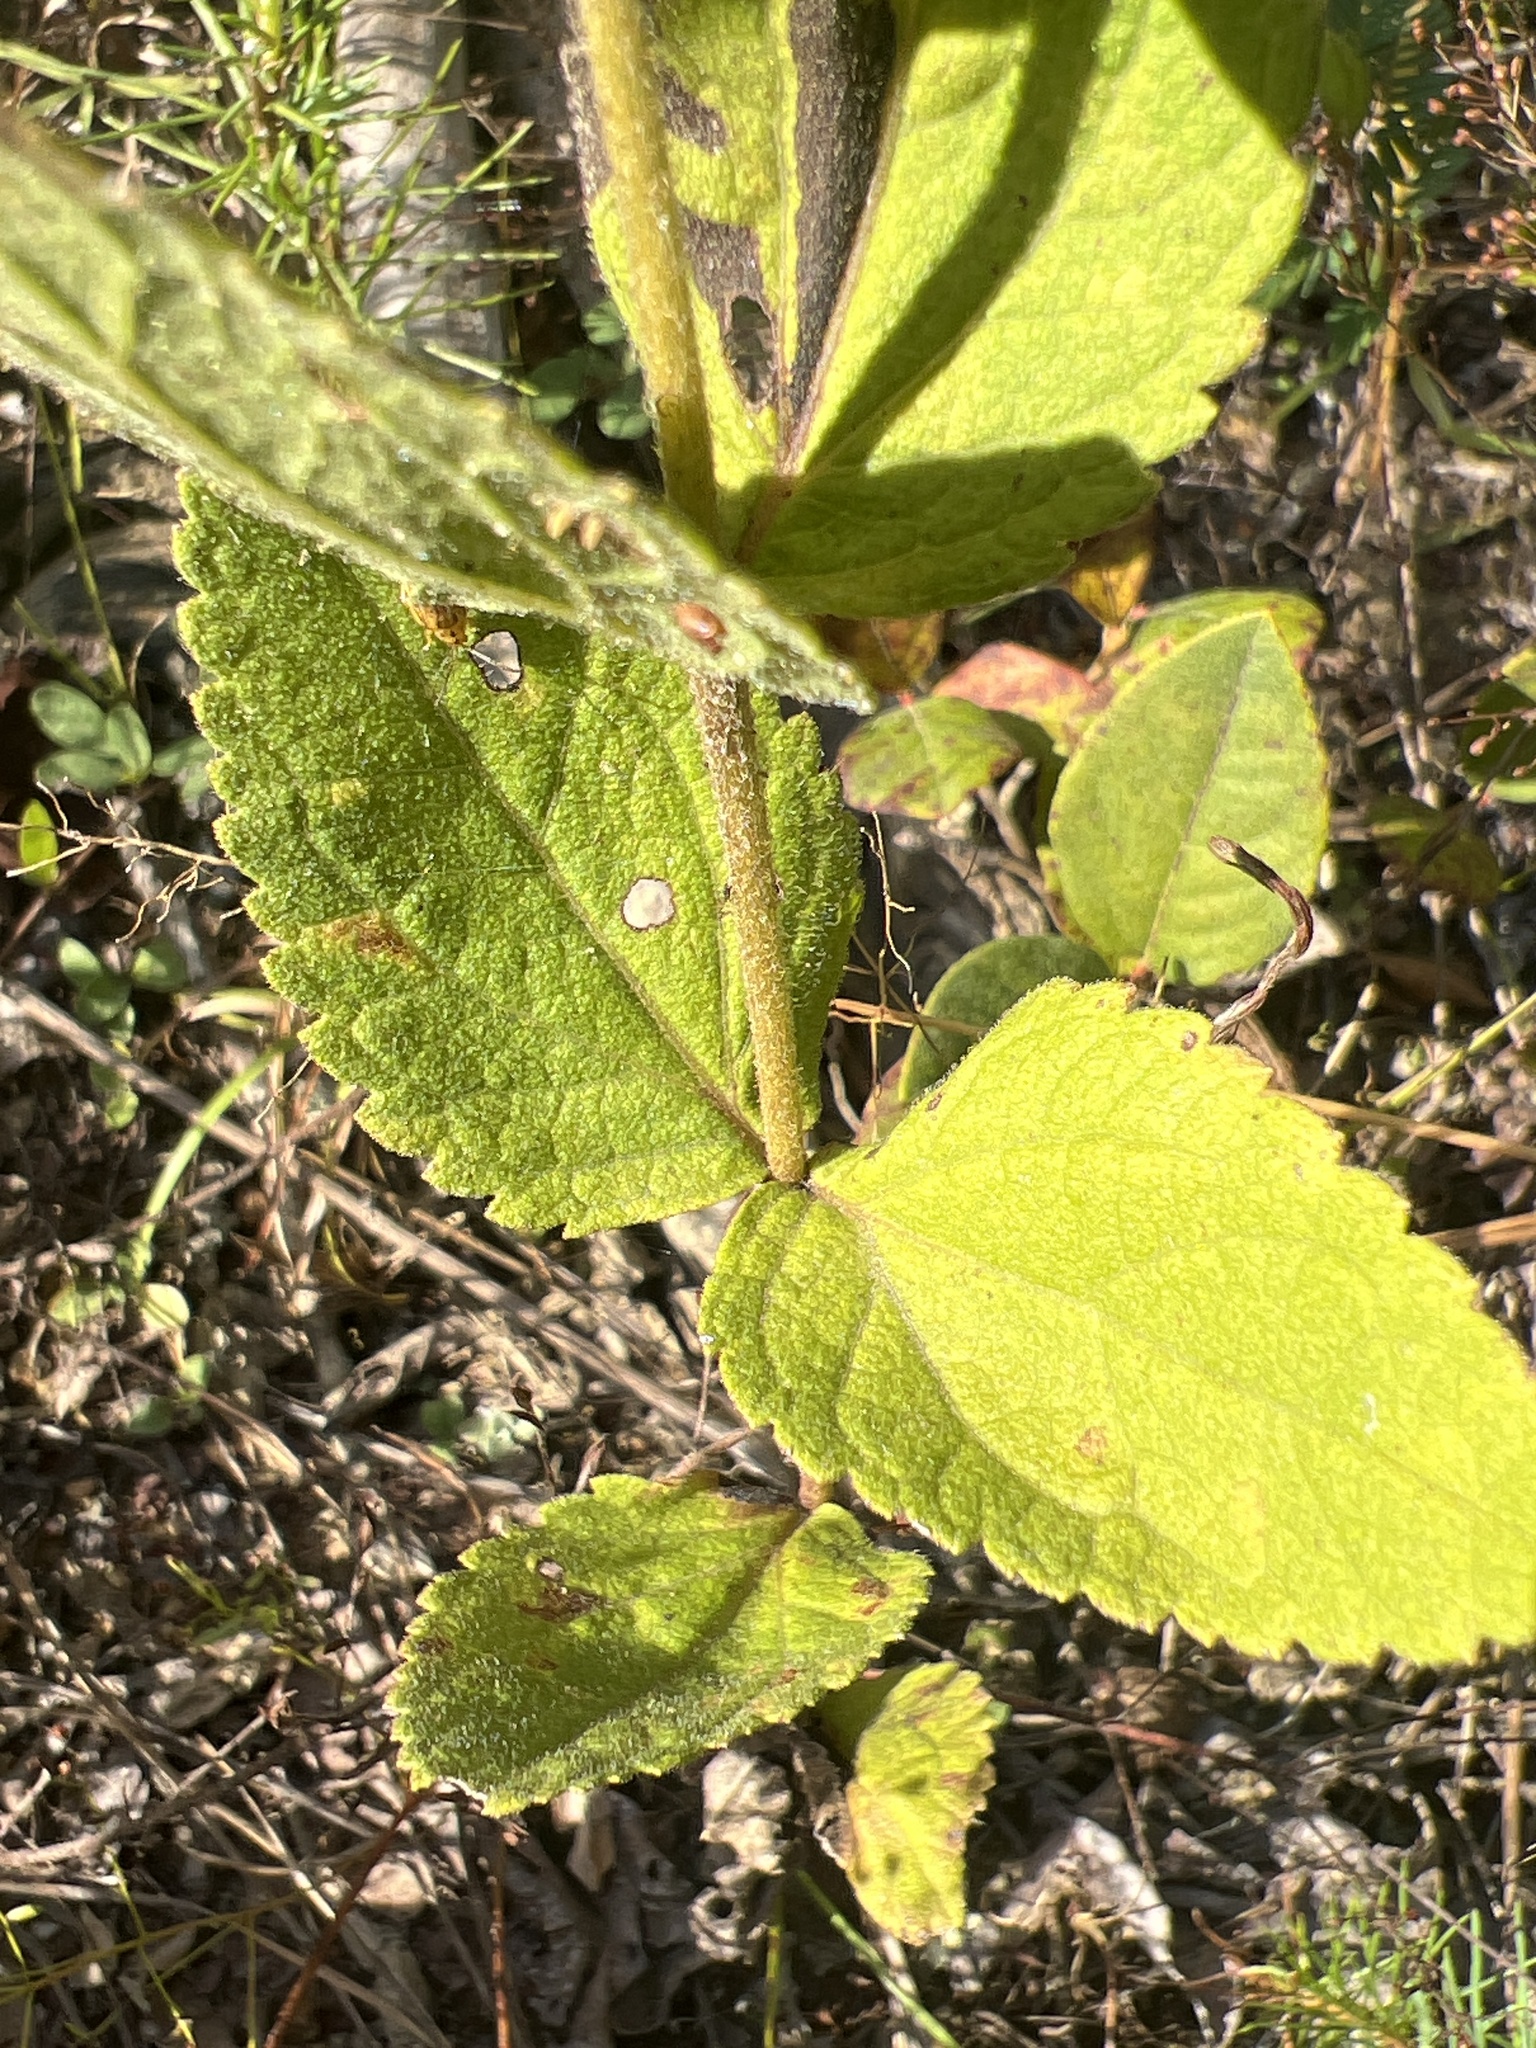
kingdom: Plantae
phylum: Tracheophyta
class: Magnoliopsida
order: Asterales
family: Asteraceae
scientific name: Asteraceae
